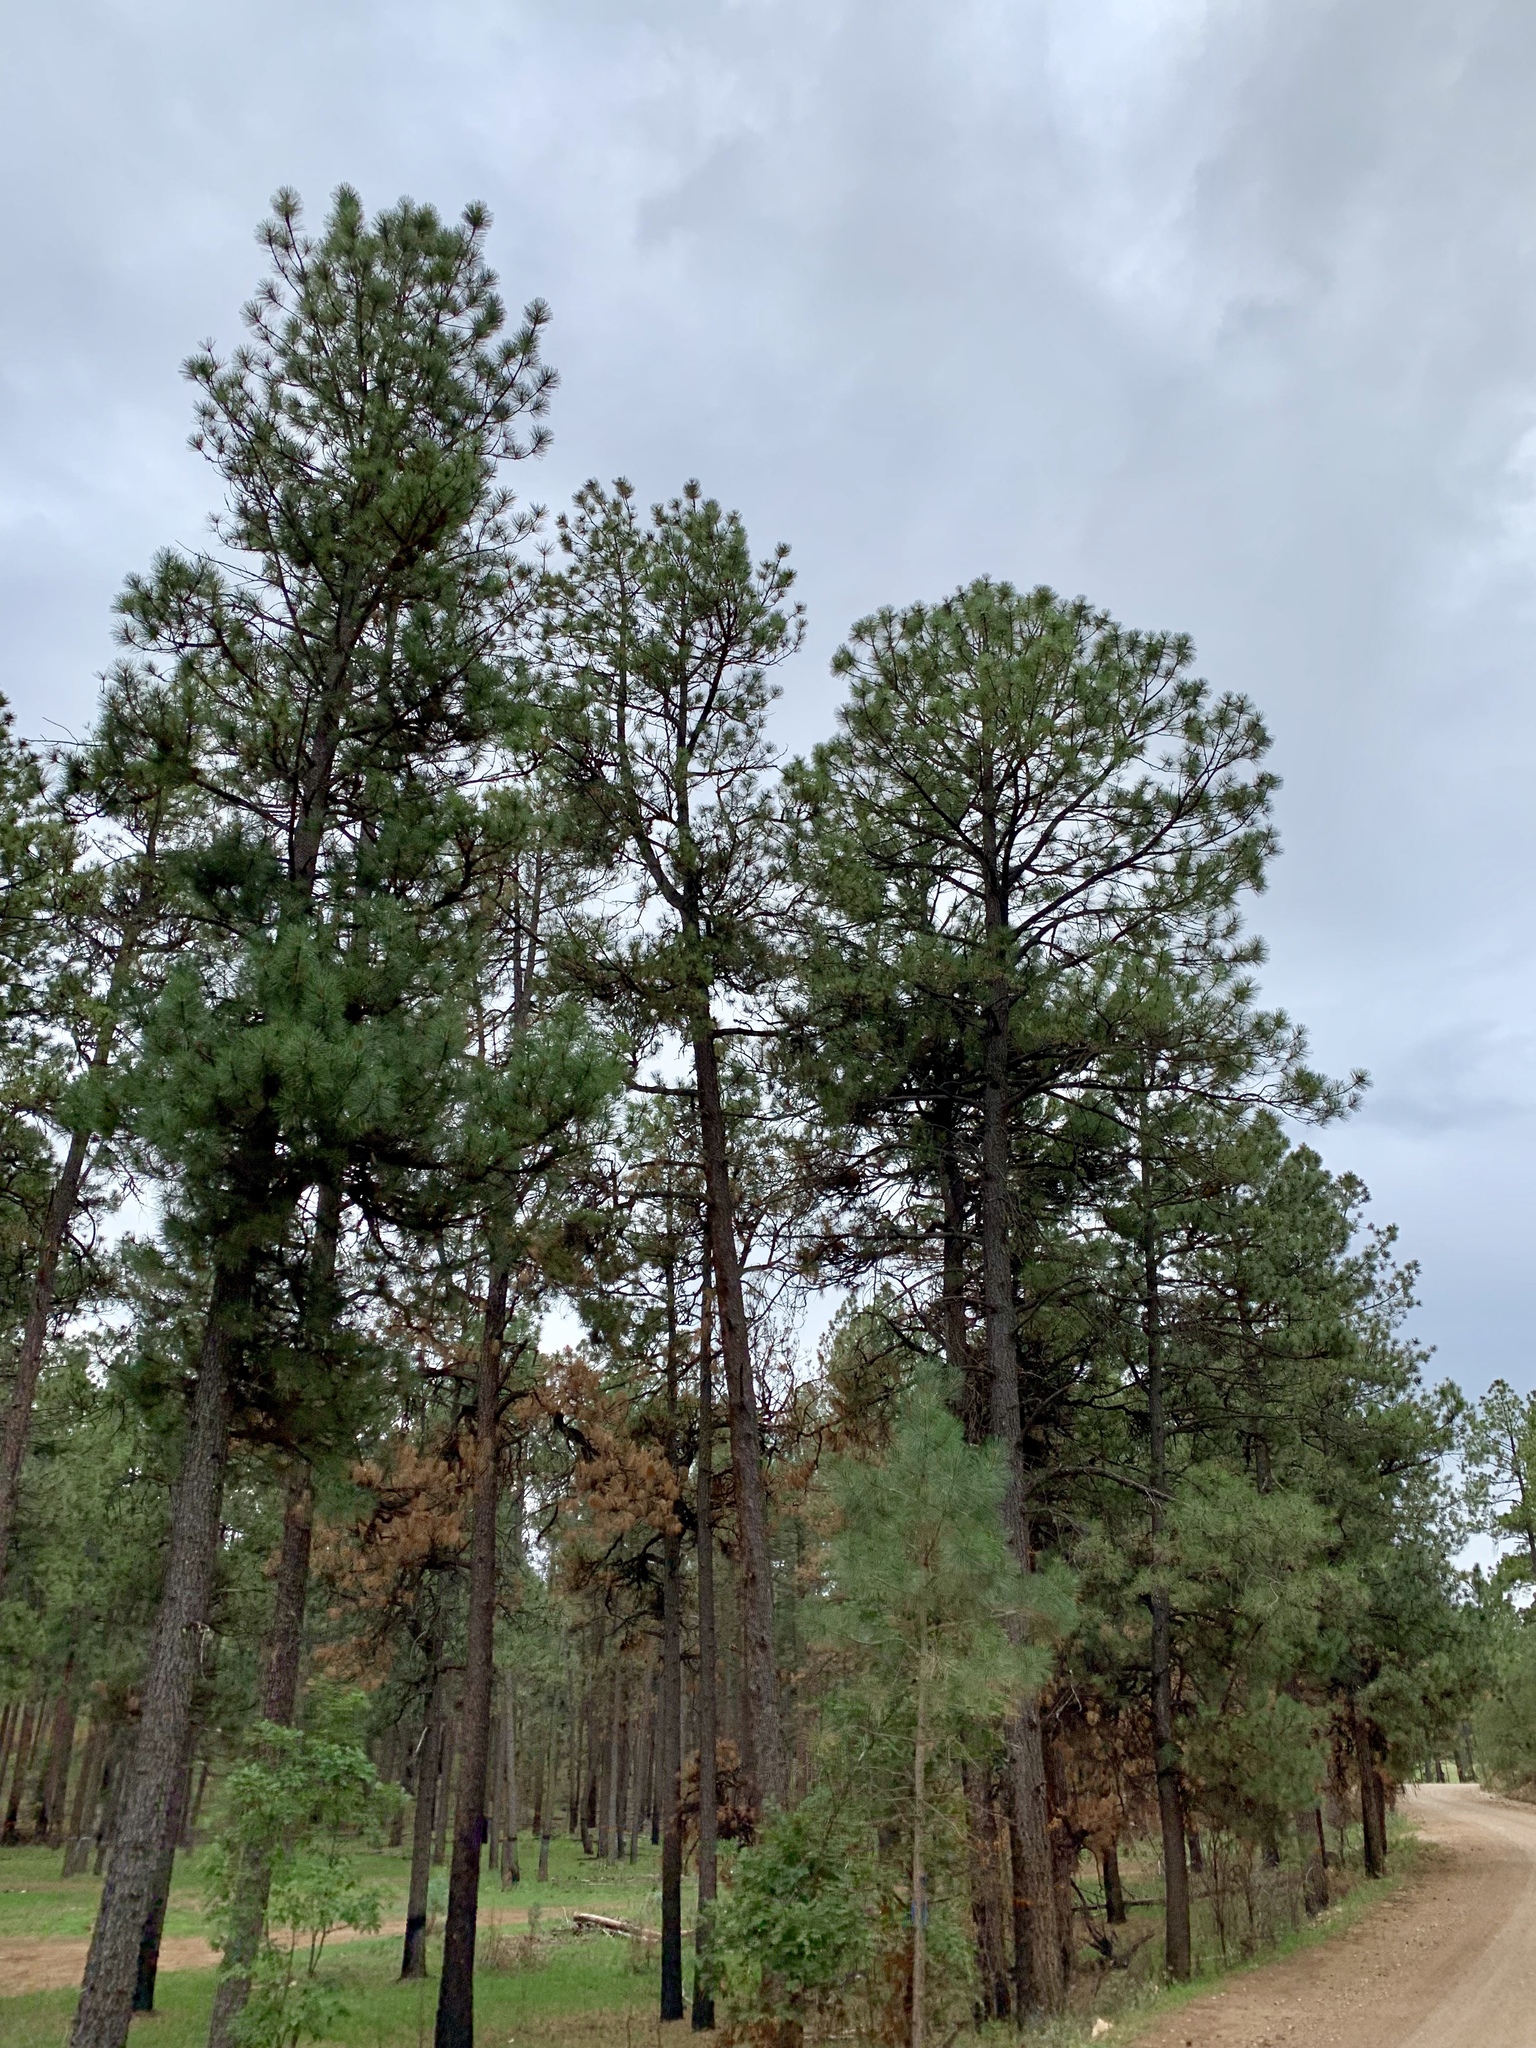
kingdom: Plantae
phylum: Tracheophyta
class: Pinopsida
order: Pinales
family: Pinaceae
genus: Pinus
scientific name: Pinus ponderosa
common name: Western yellow-pine
